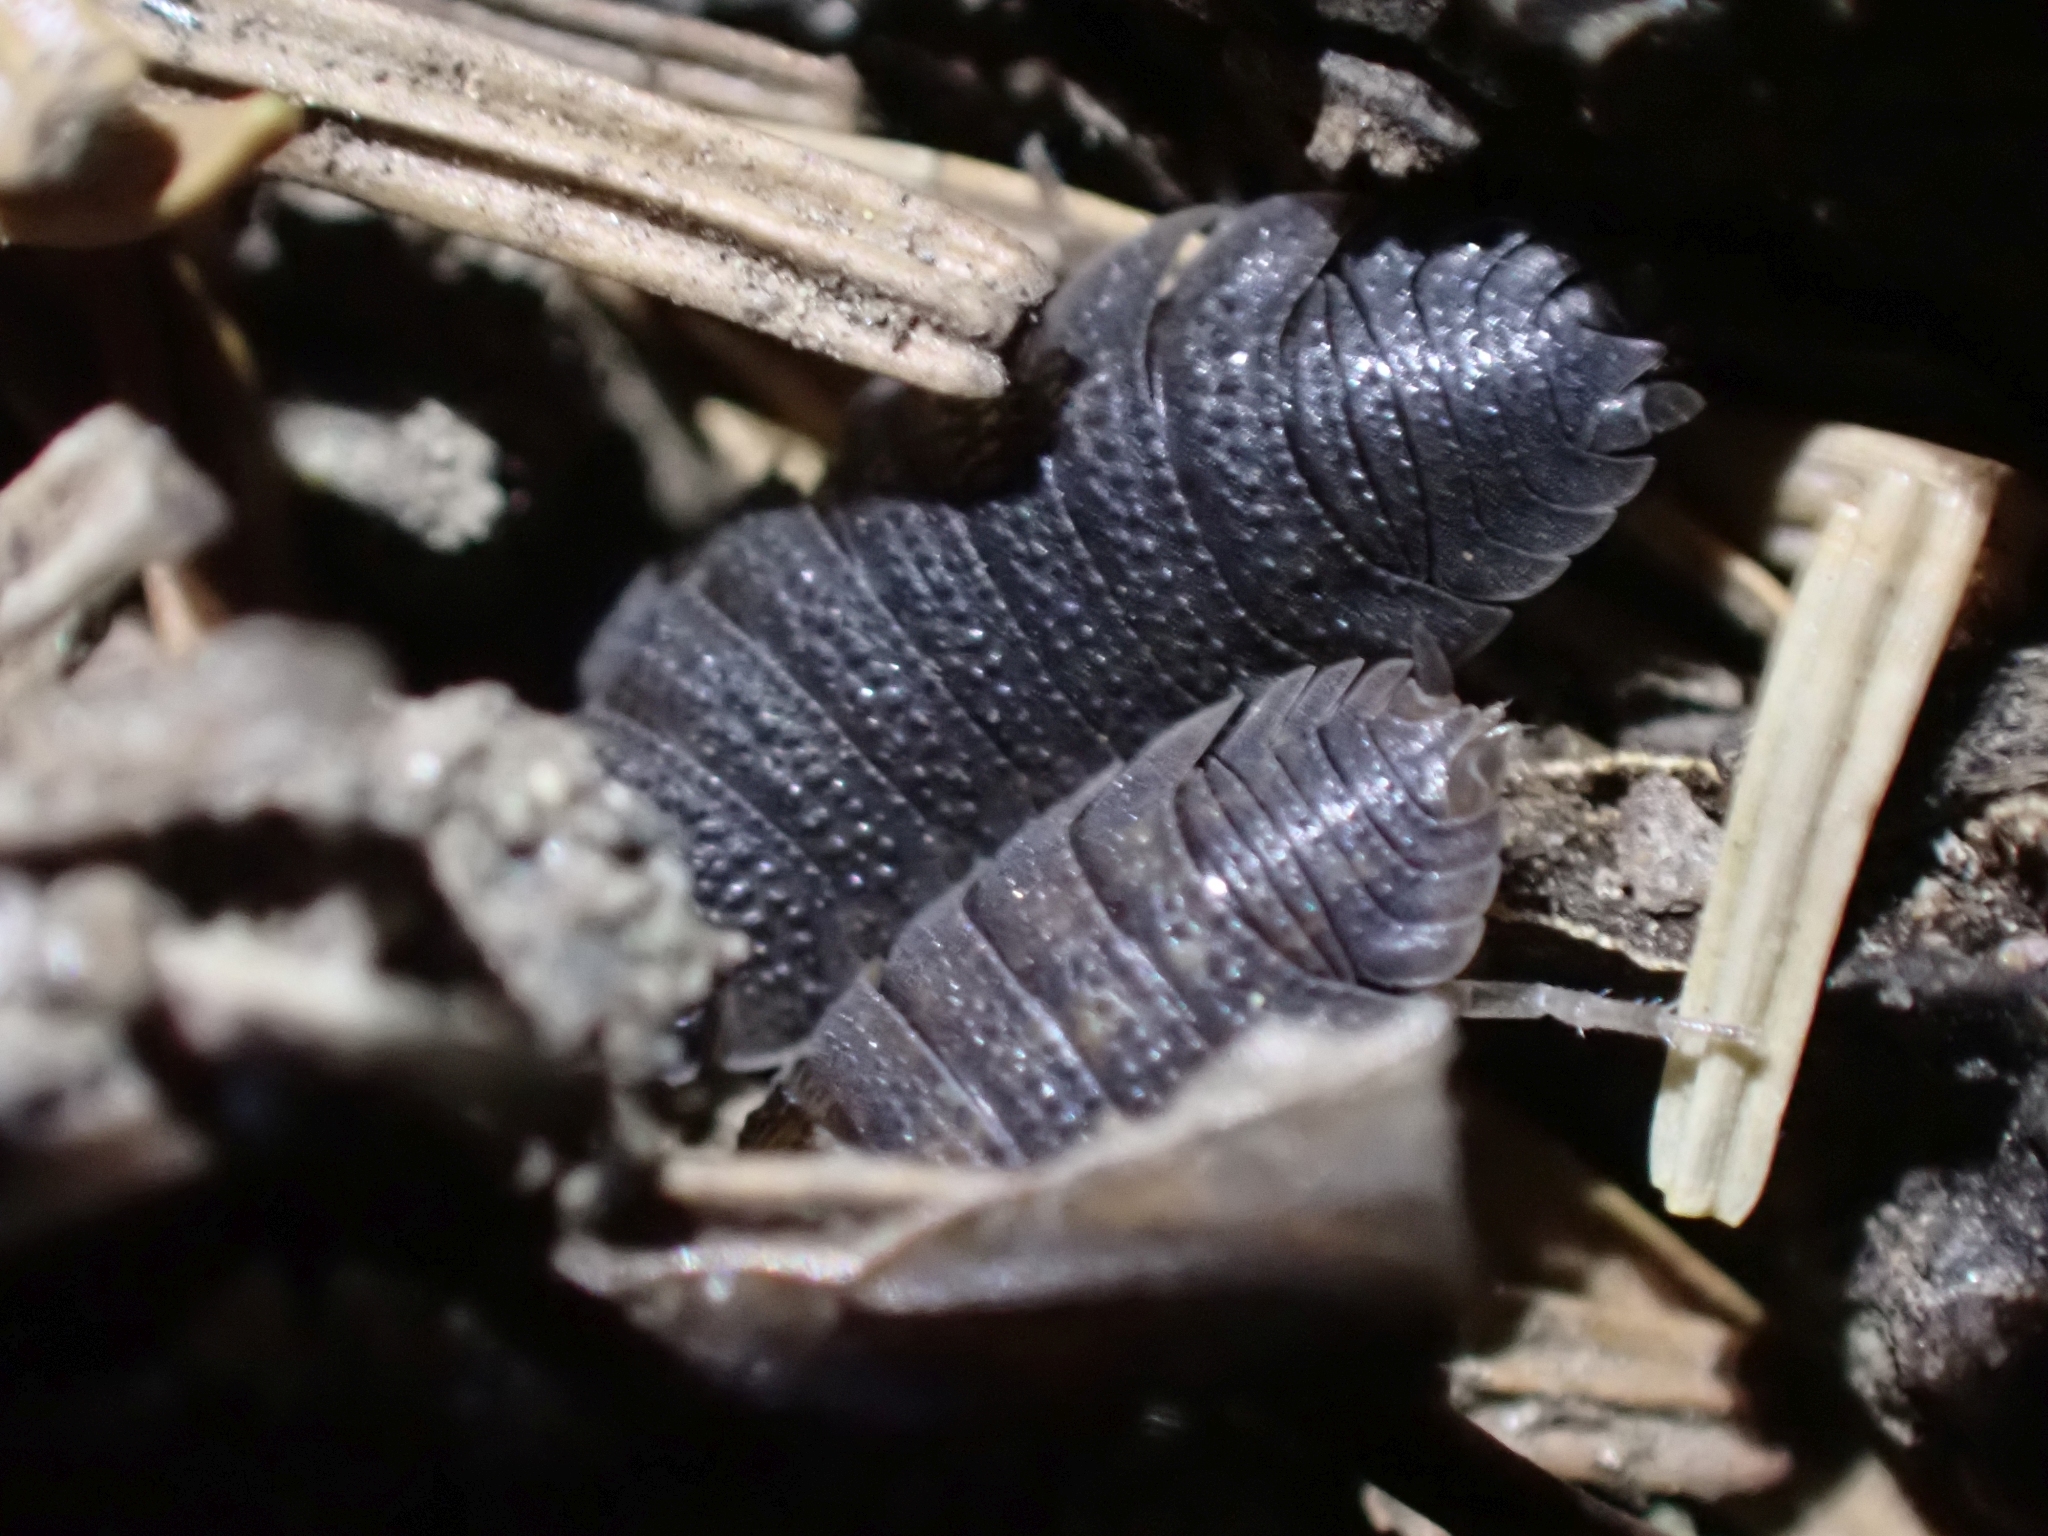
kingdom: Animalia
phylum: Arthropoda
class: Malacostraca
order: Isopoda
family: Porcellionidae
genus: Porcellio
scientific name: Porcellio scaber
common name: Common rough woodlouse
